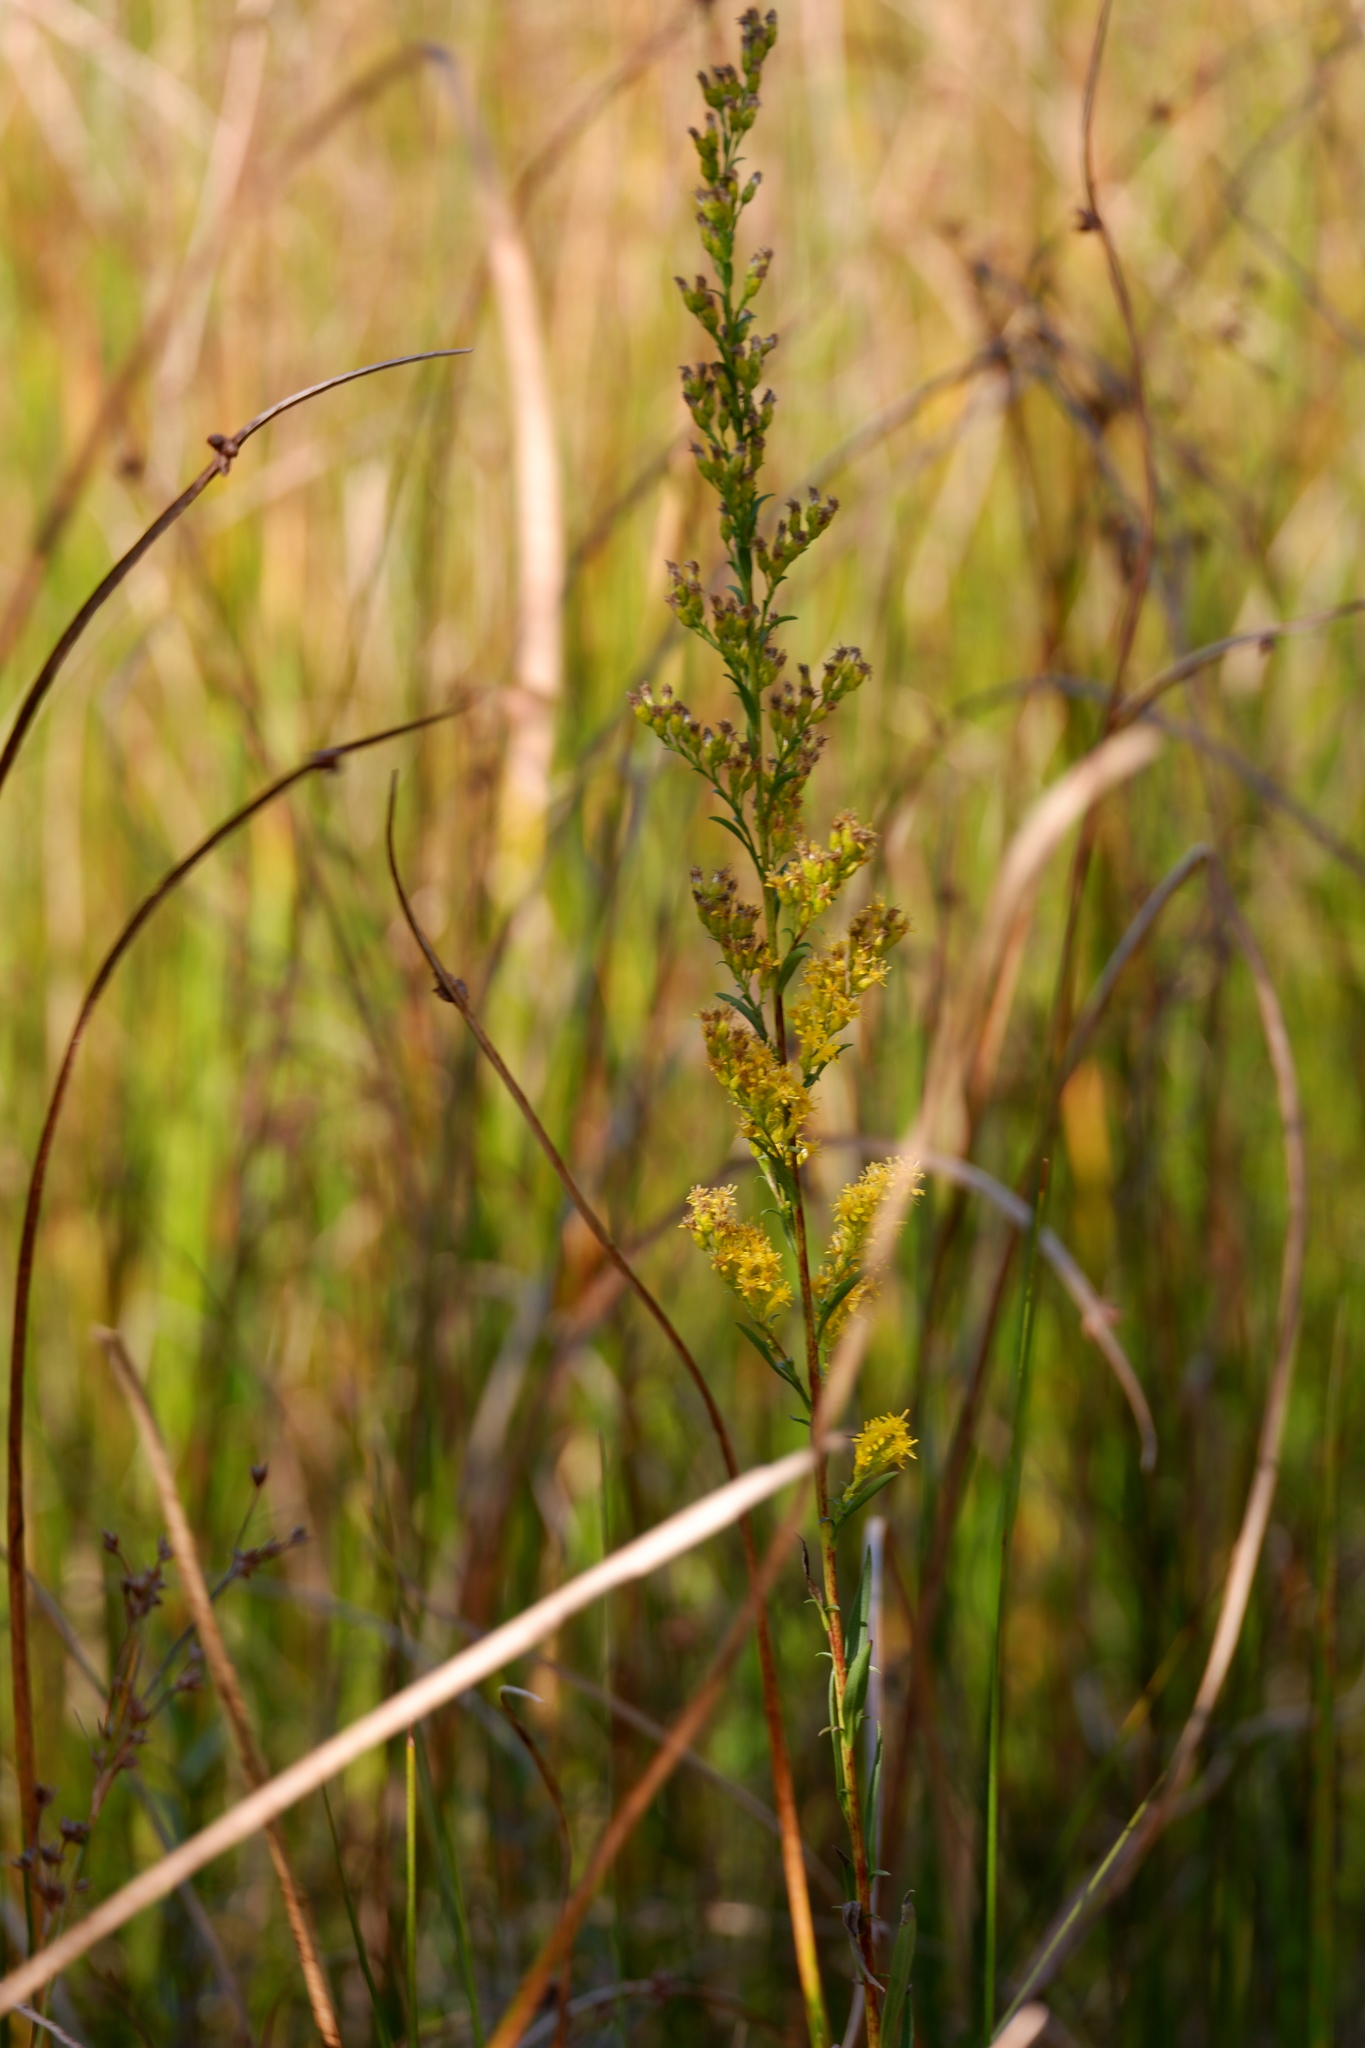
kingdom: Plantae
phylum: Tracheophyta
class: Magnoliopsida
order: Asterales
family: Asteraceae
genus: Solidago
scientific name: Solidago uliginosa
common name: Bog goldenrod
